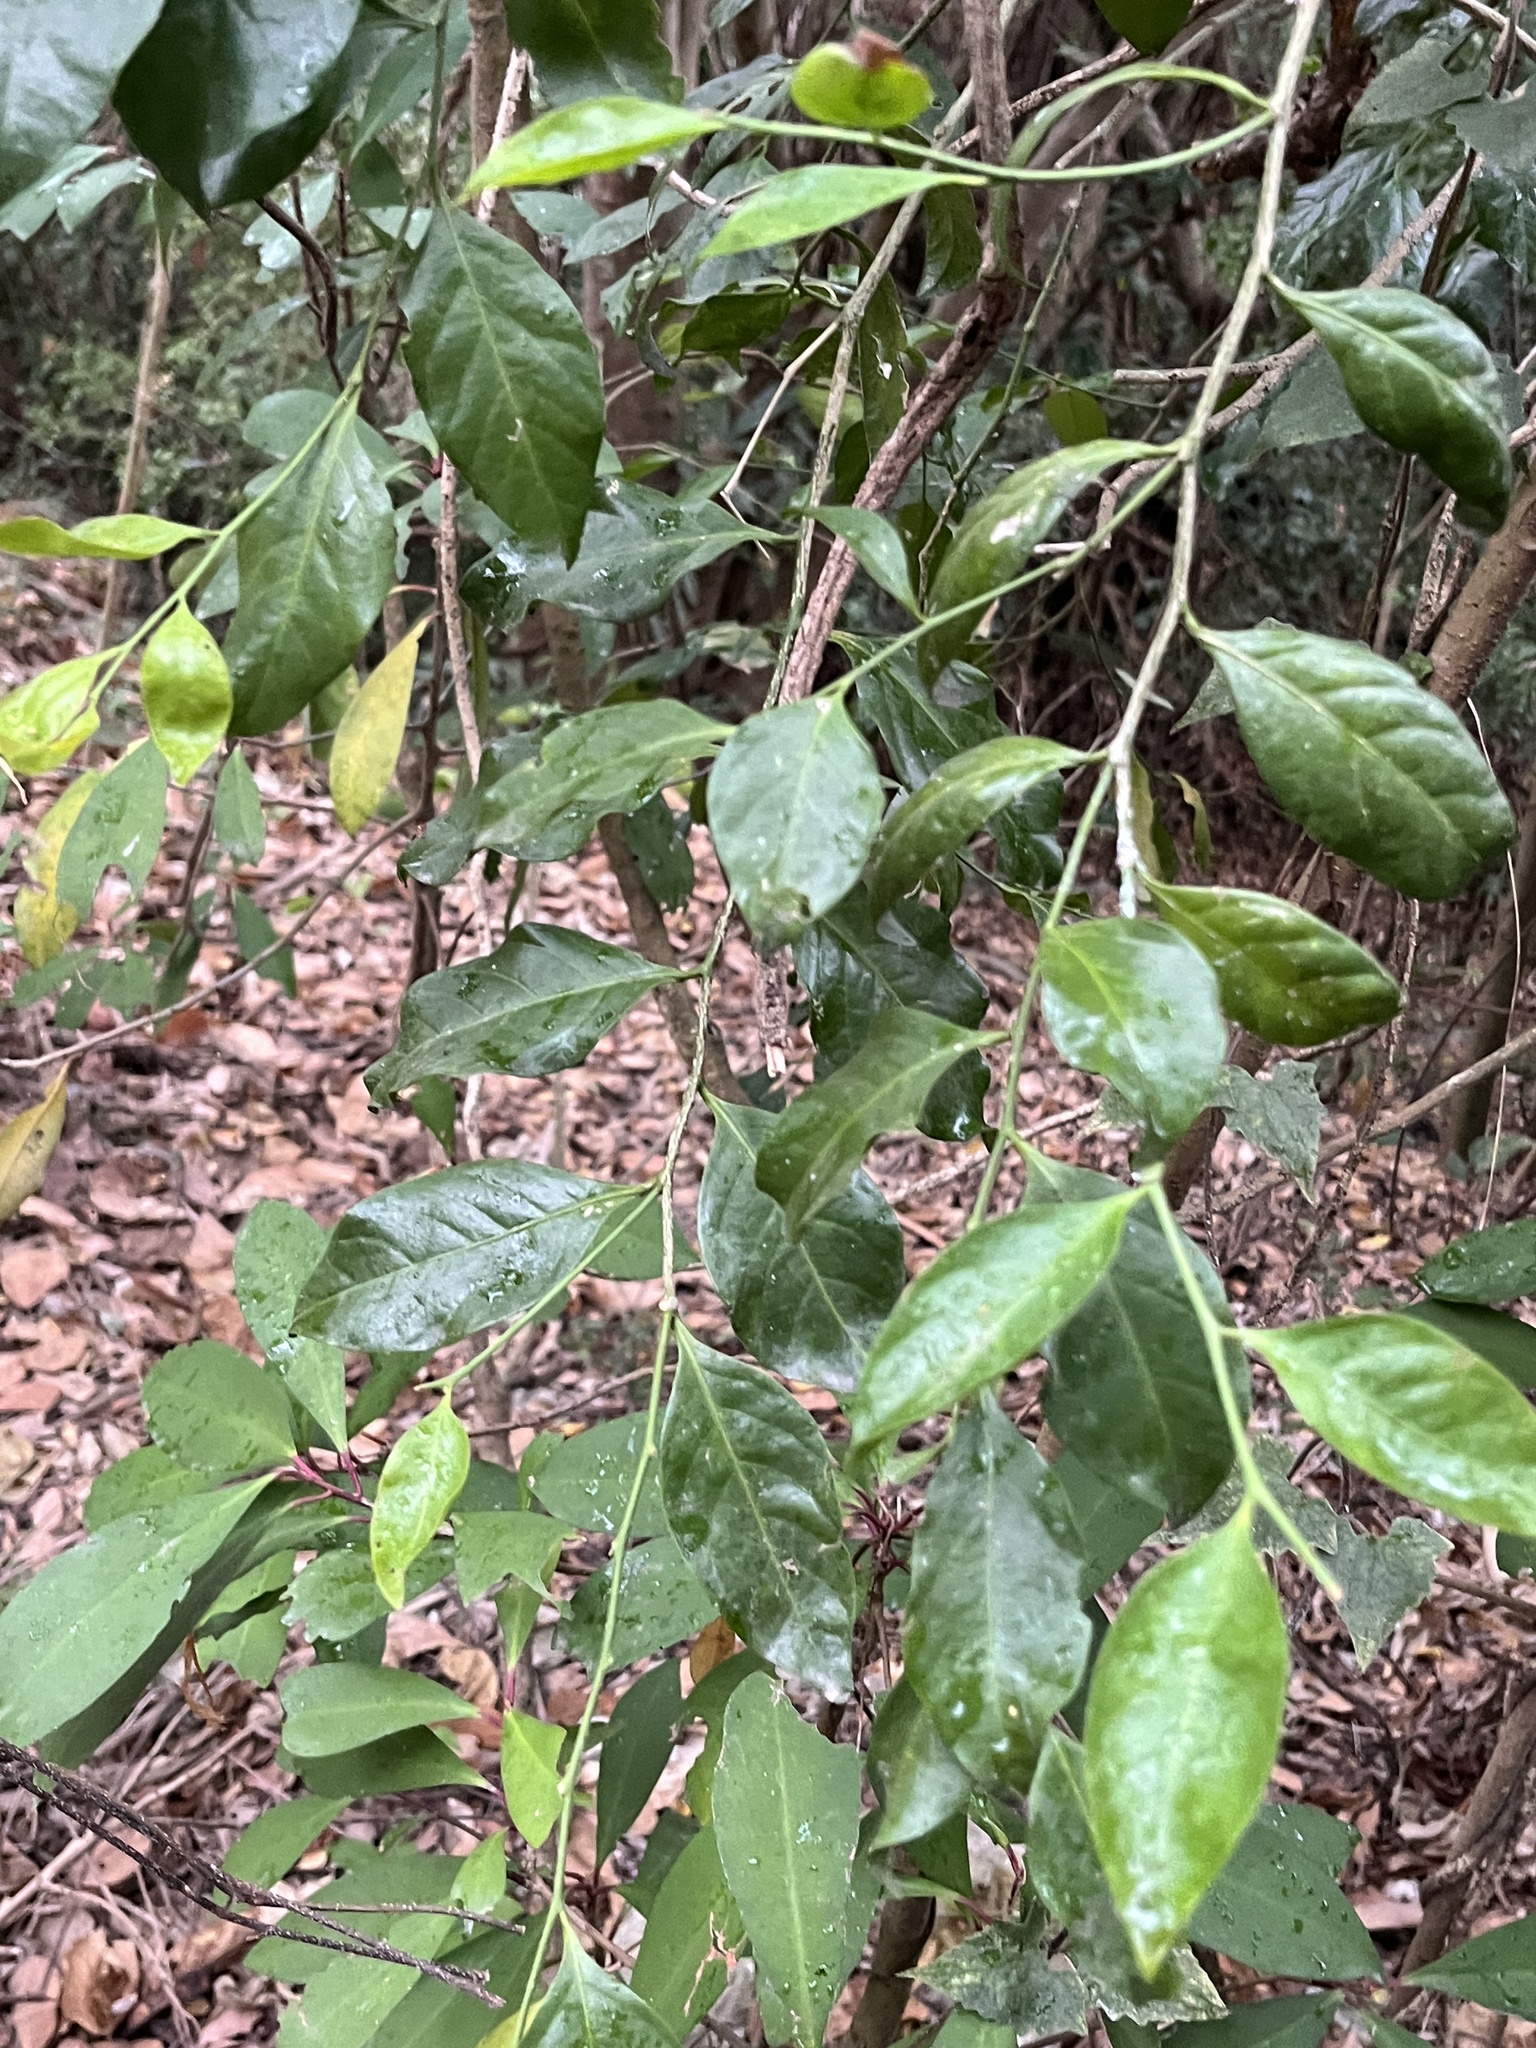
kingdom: Plantae
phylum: Tracheophyta
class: Magnoliopsida
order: Santalales
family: Opiliaceae
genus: Champereia
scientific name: Champereia manillana
